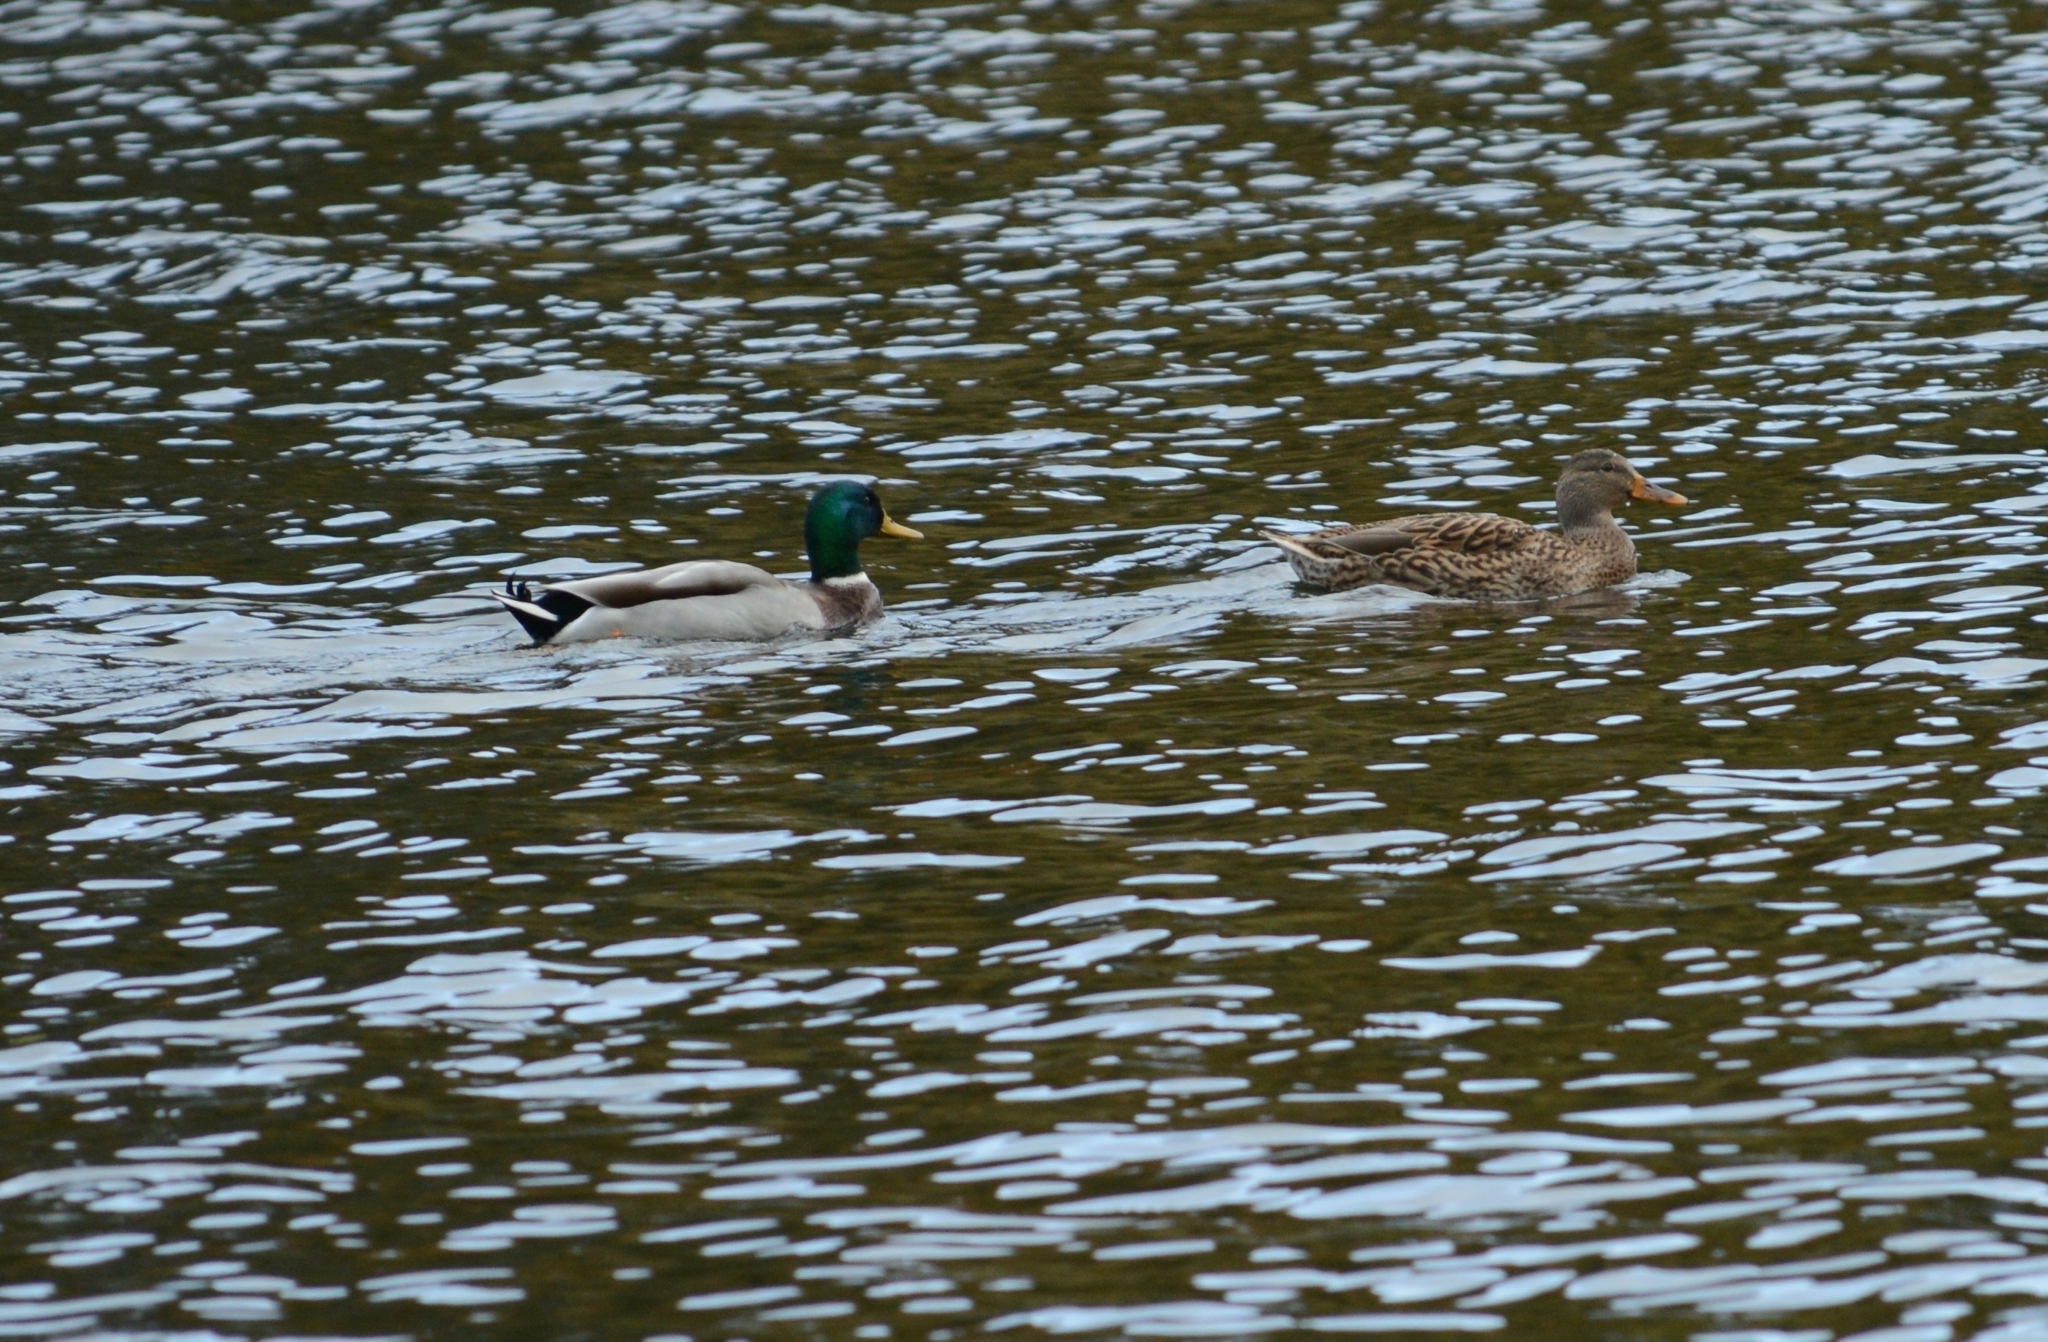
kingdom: Animalia
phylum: Chordata
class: Aves
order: Anseriformes
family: Anatidae
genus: Anas
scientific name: Anas platyrhynchos
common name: Mallard
